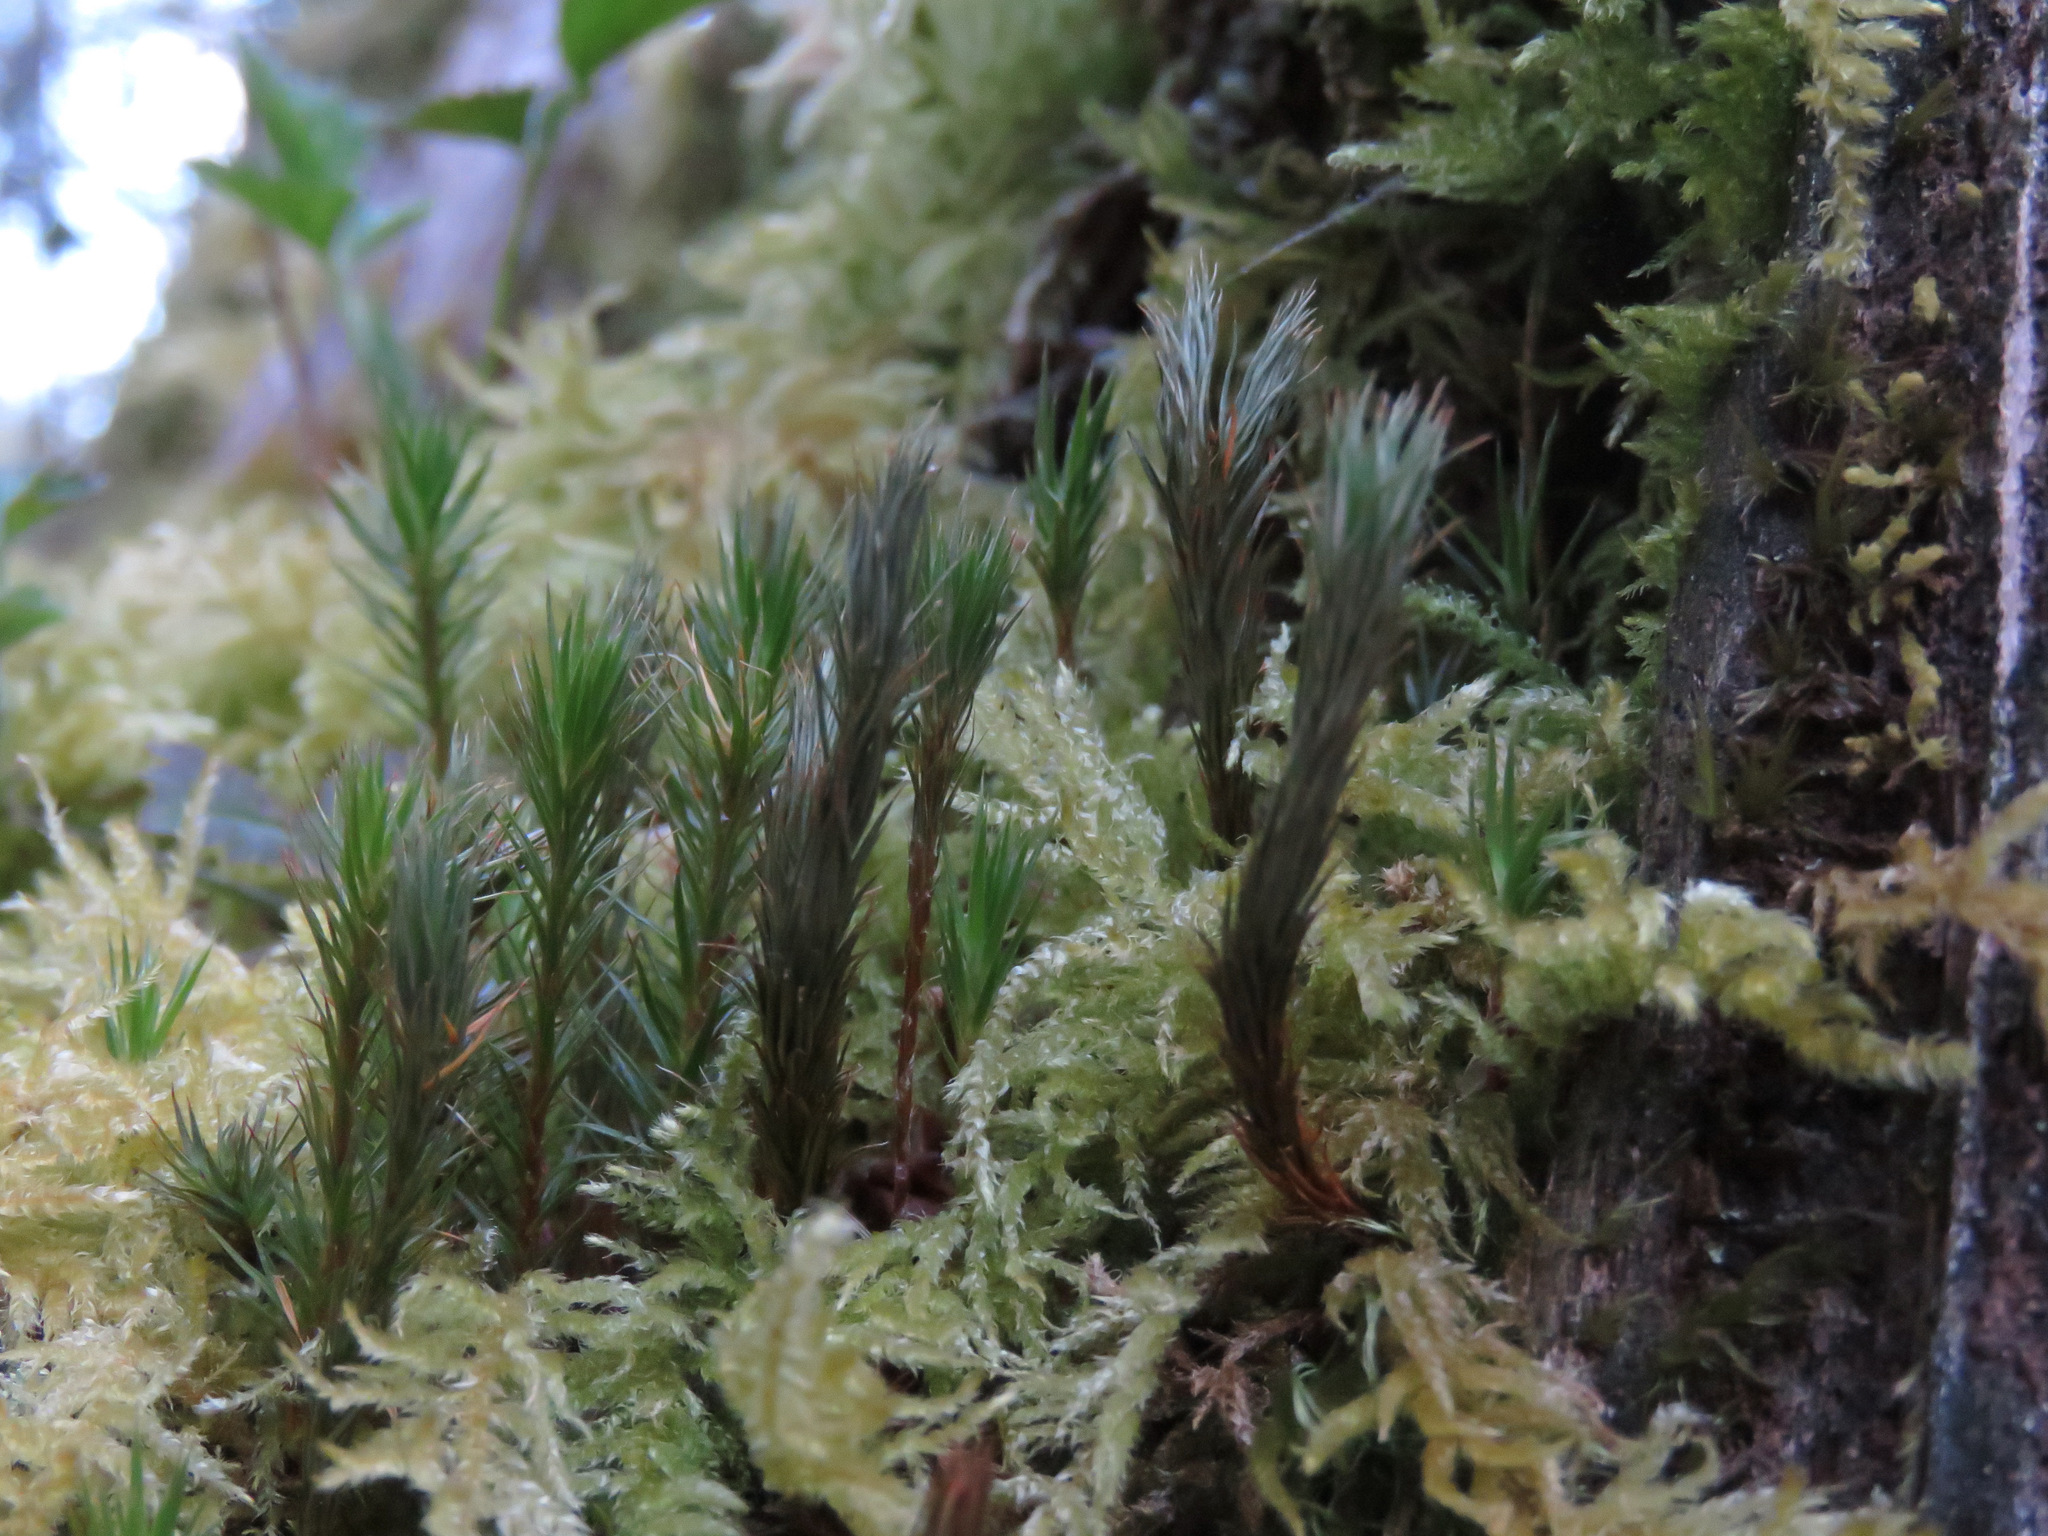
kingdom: Plantae
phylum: Bryophyta
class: Polytrichopsida
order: Polytrichales
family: Polytrichaceae
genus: Polytrichum
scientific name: Polytrichum juniperinum
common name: Juniper haircap moss
